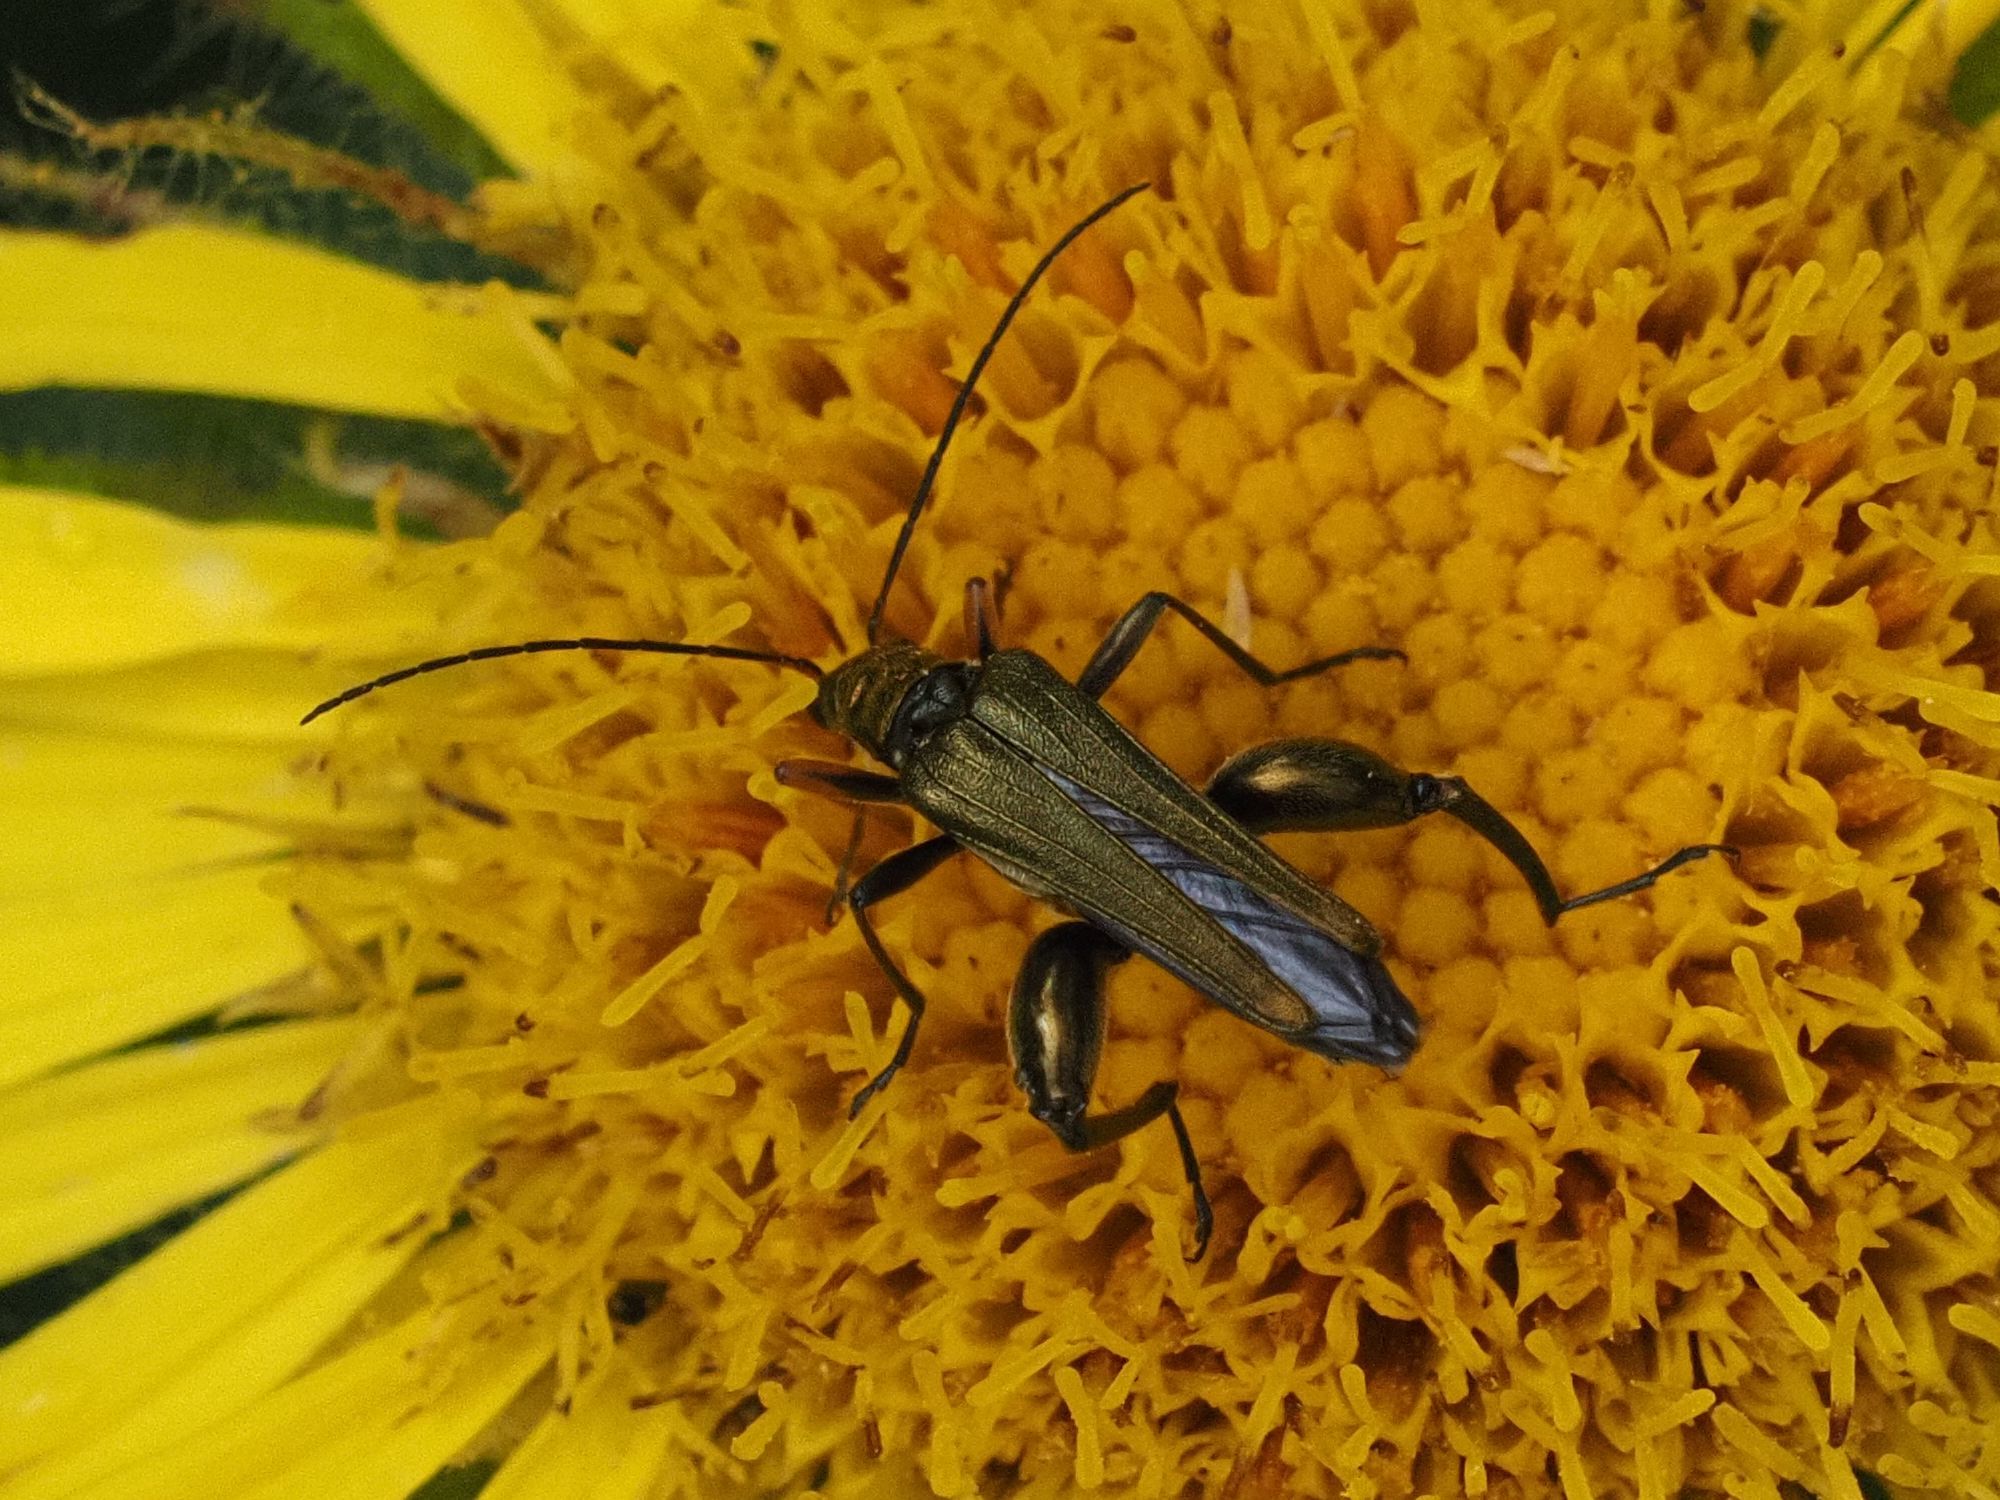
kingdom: Animalia
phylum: Arthropoda
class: Insecta
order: Coleoptera
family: Oedemeridae
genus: Oedemera
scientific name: Oedemera flavipes
